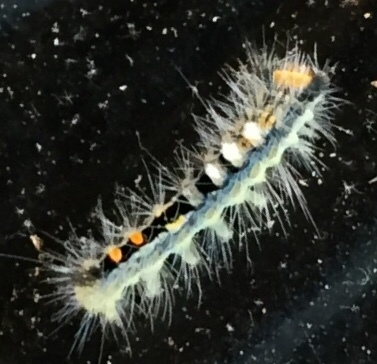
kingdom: Animalia
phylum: Arthropoda
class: Insecta
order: Lepidoptera
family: Erebidae
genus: Orgyia
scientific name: Orgyia leucostigma
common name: White-marked tussock moth
